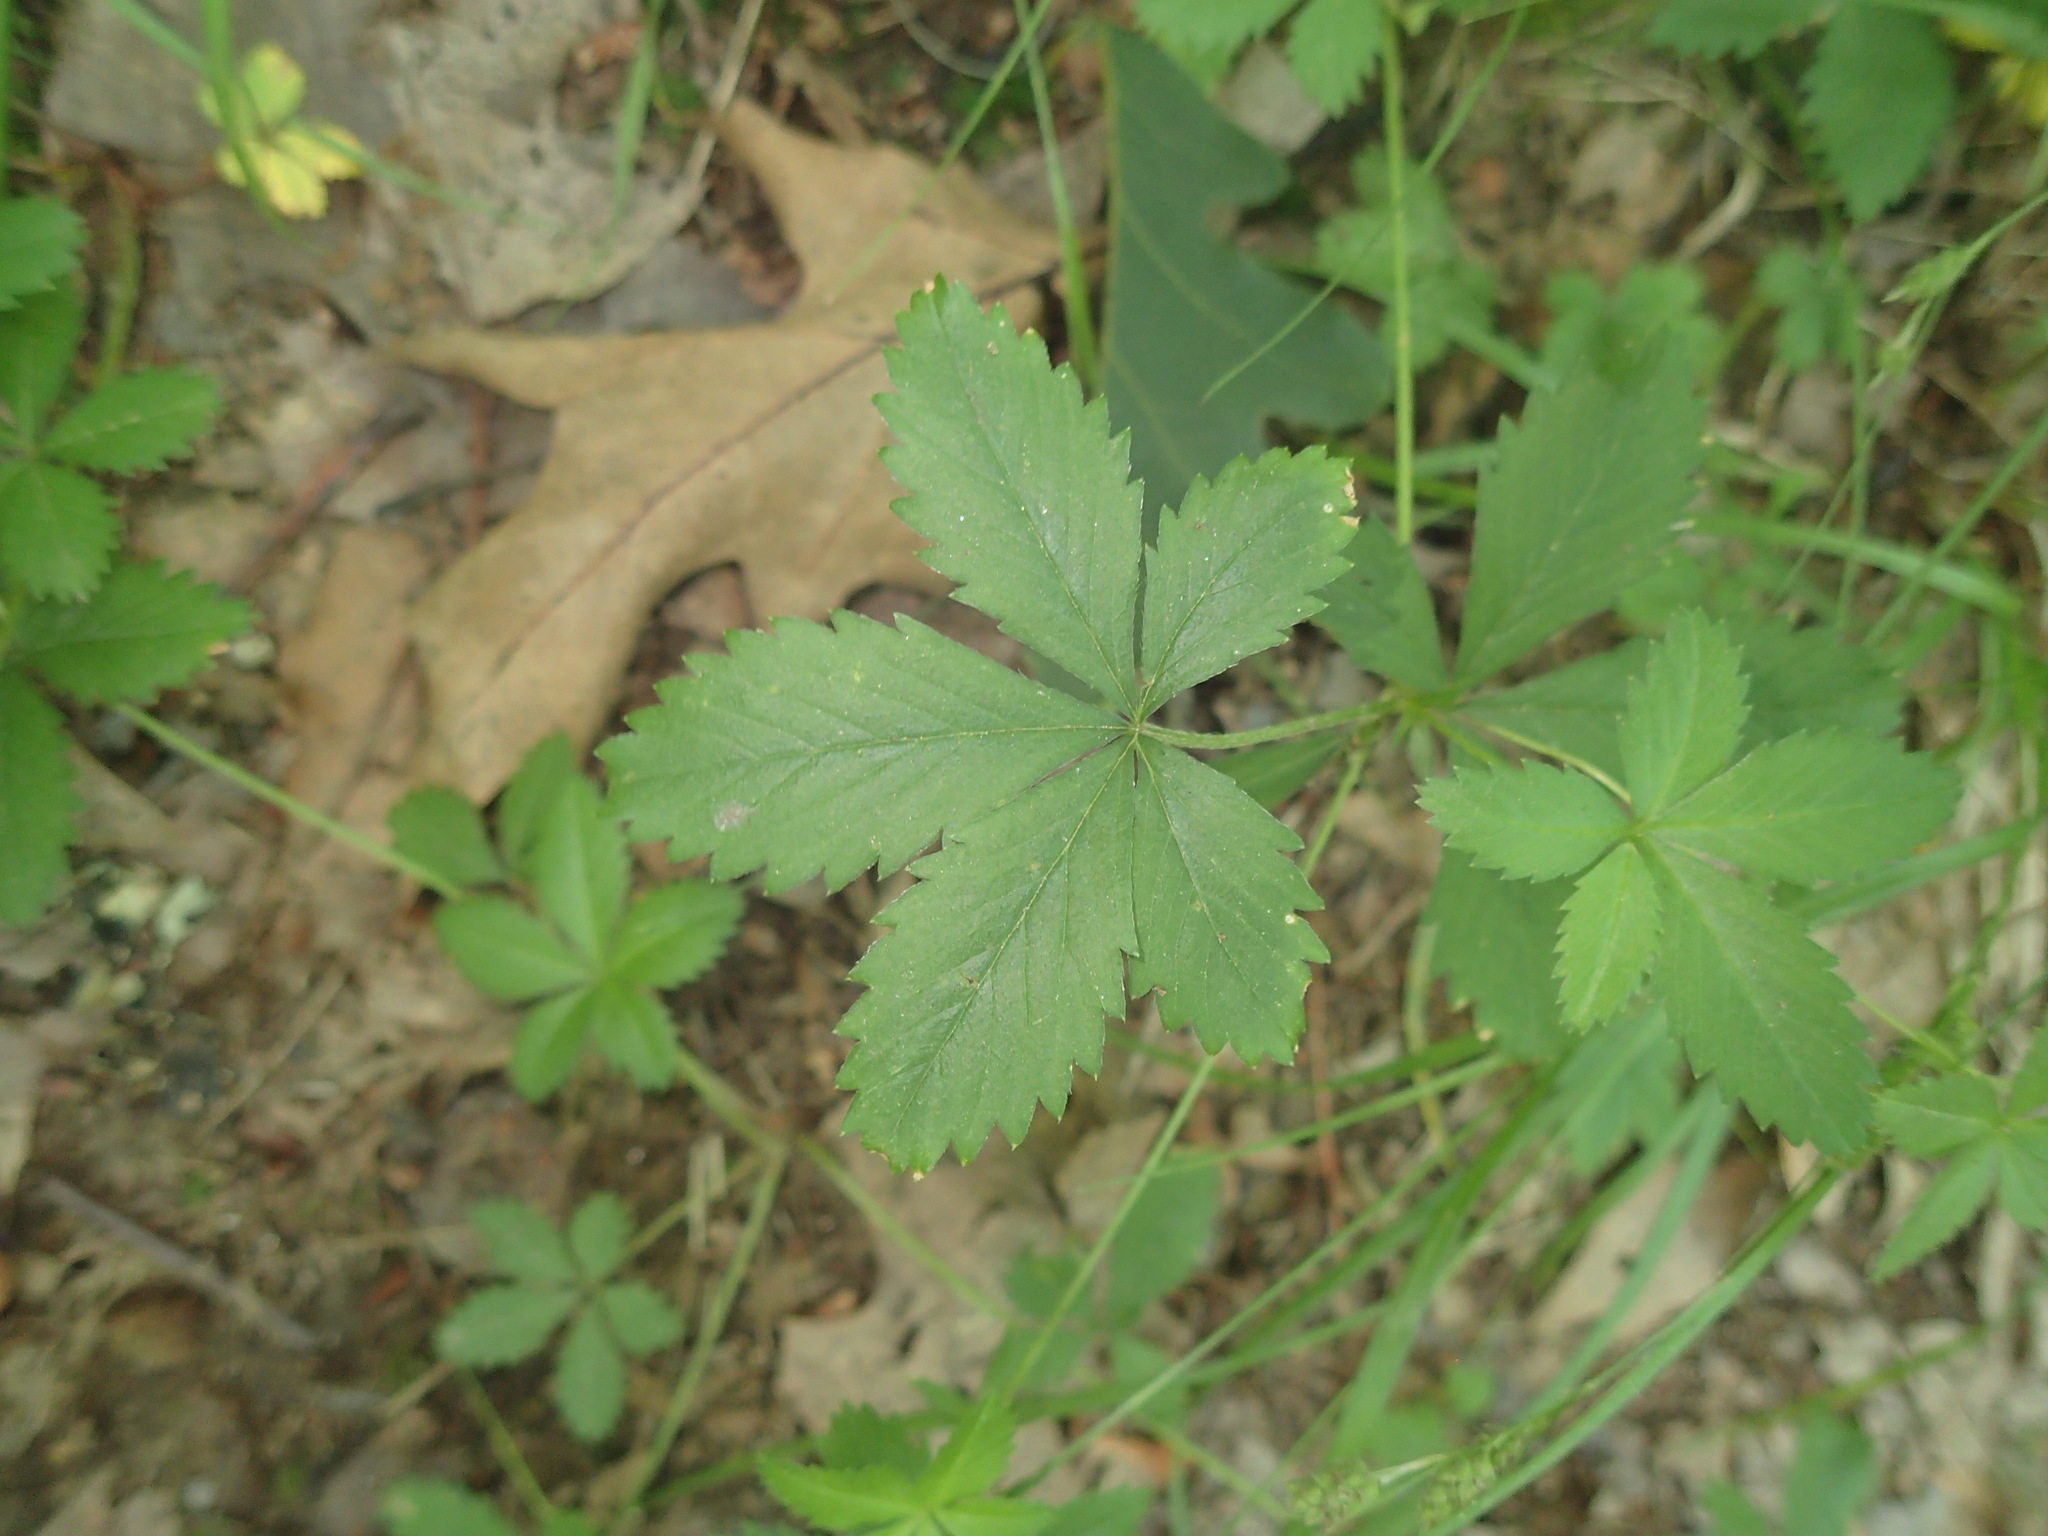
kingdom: Plantae
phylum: Tracheophyta
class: Magnoliopsida
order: Rosales
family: Rosaceae
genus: Potentilla
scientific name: Potentilla simplex
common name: Old field cinquefoil
